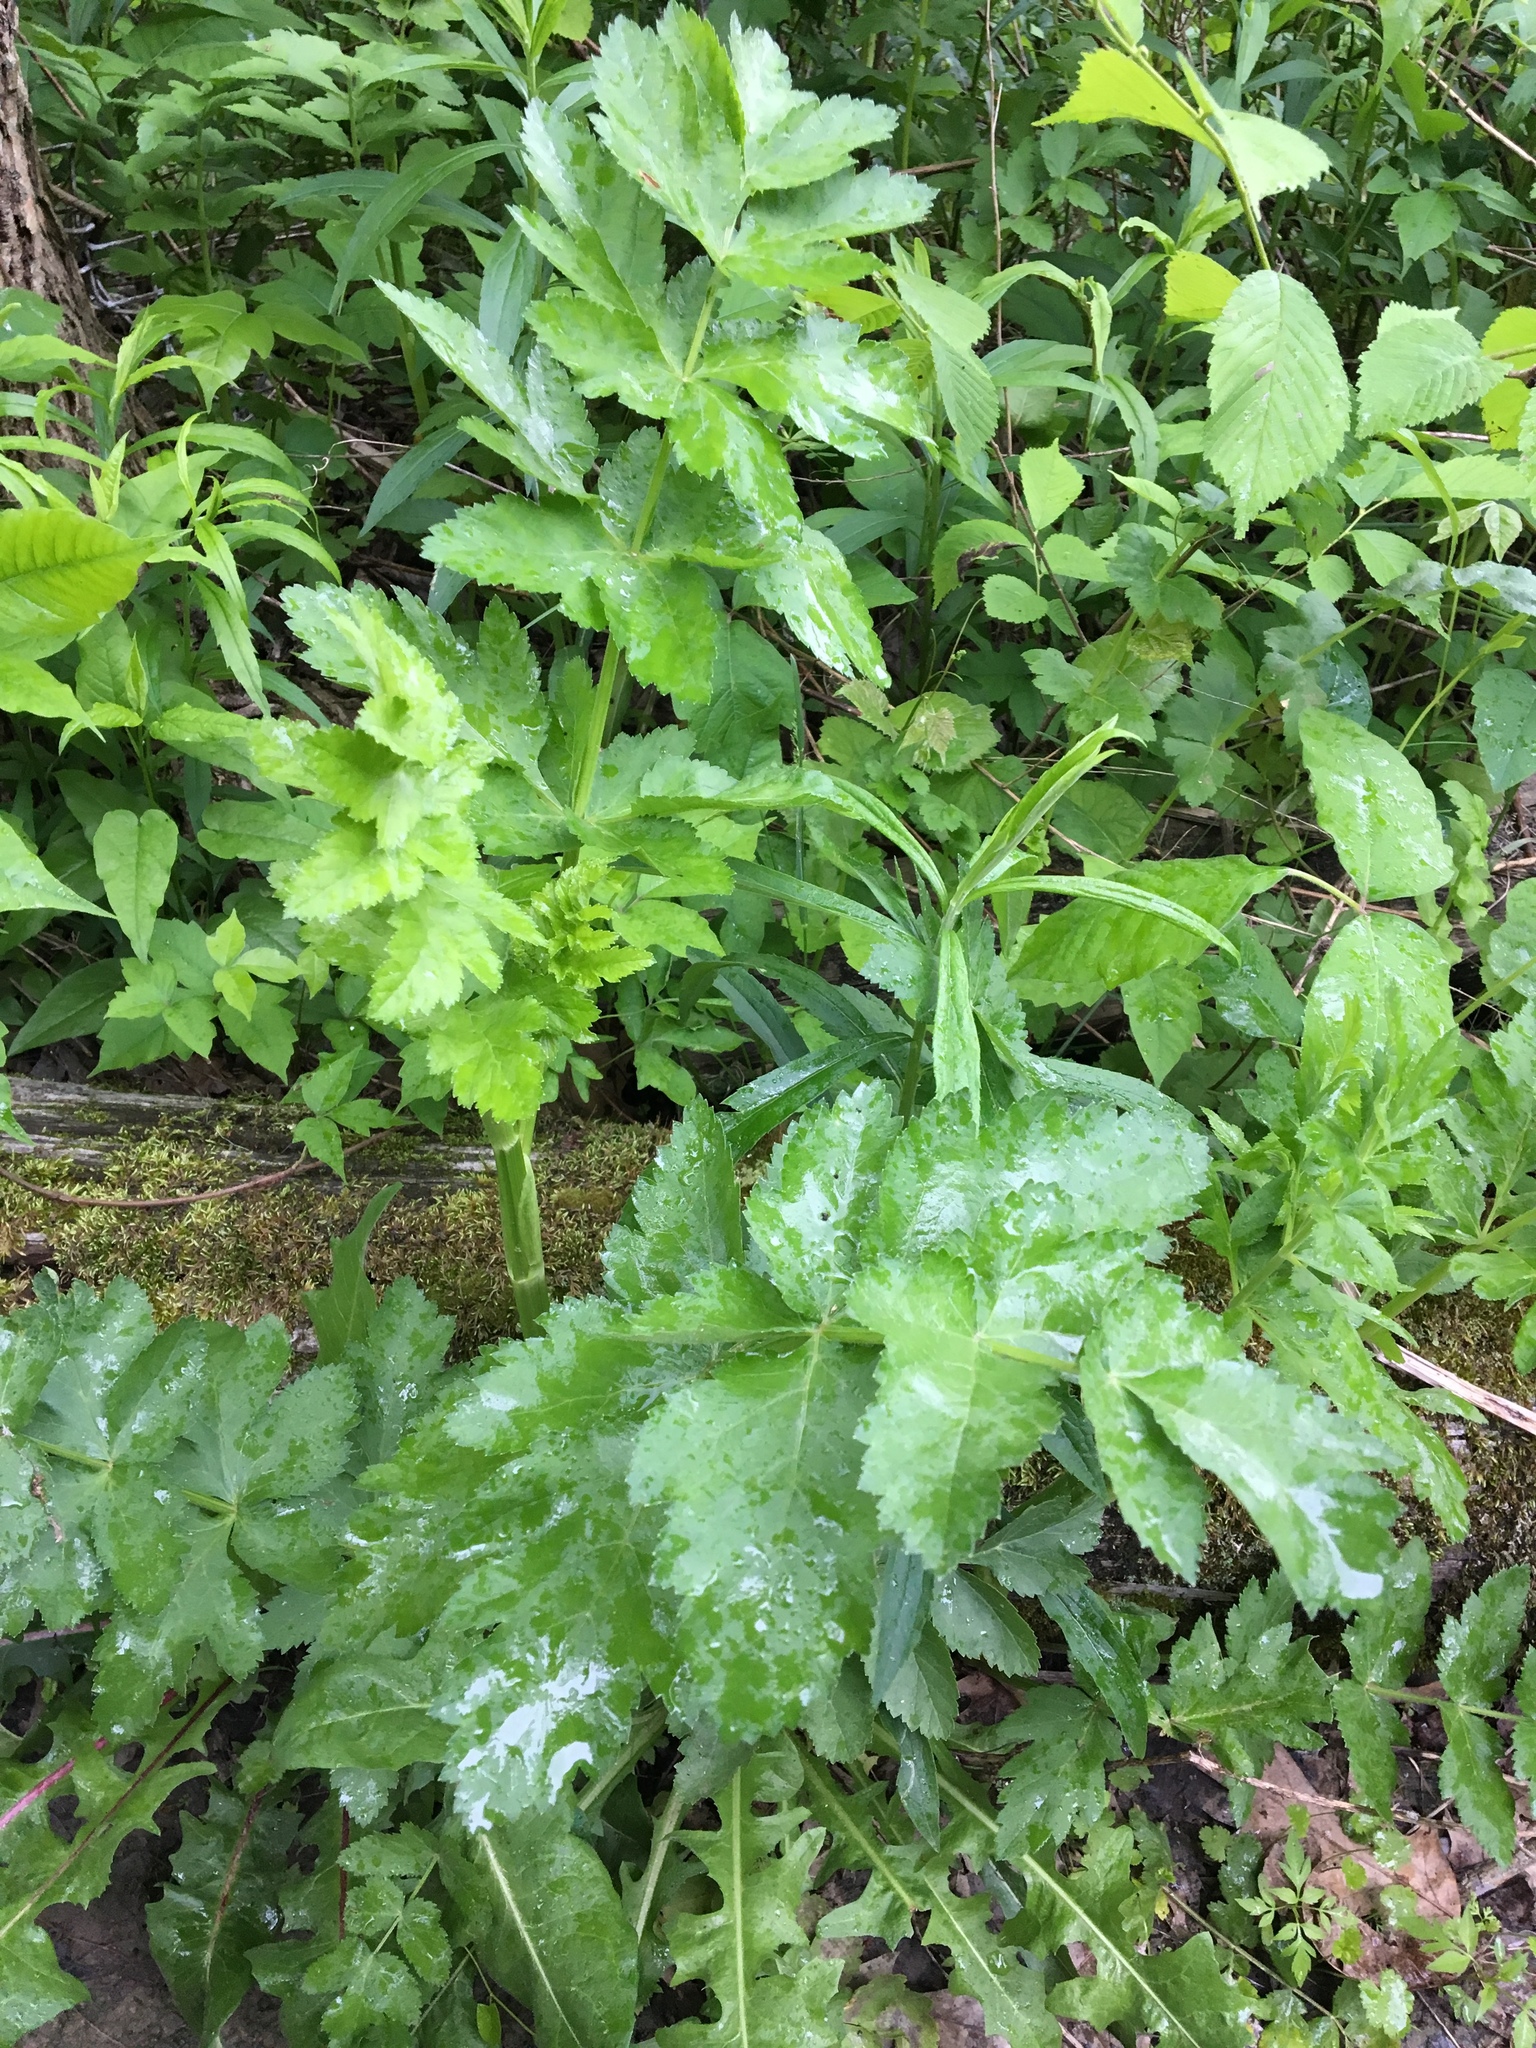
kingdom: Plantae
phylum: Tracheophyta
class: Magnoliopsida
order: Apiales
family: Apiaceae
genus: Pastinaca
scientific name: Pastinaca sativa
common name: Wild parsnip
